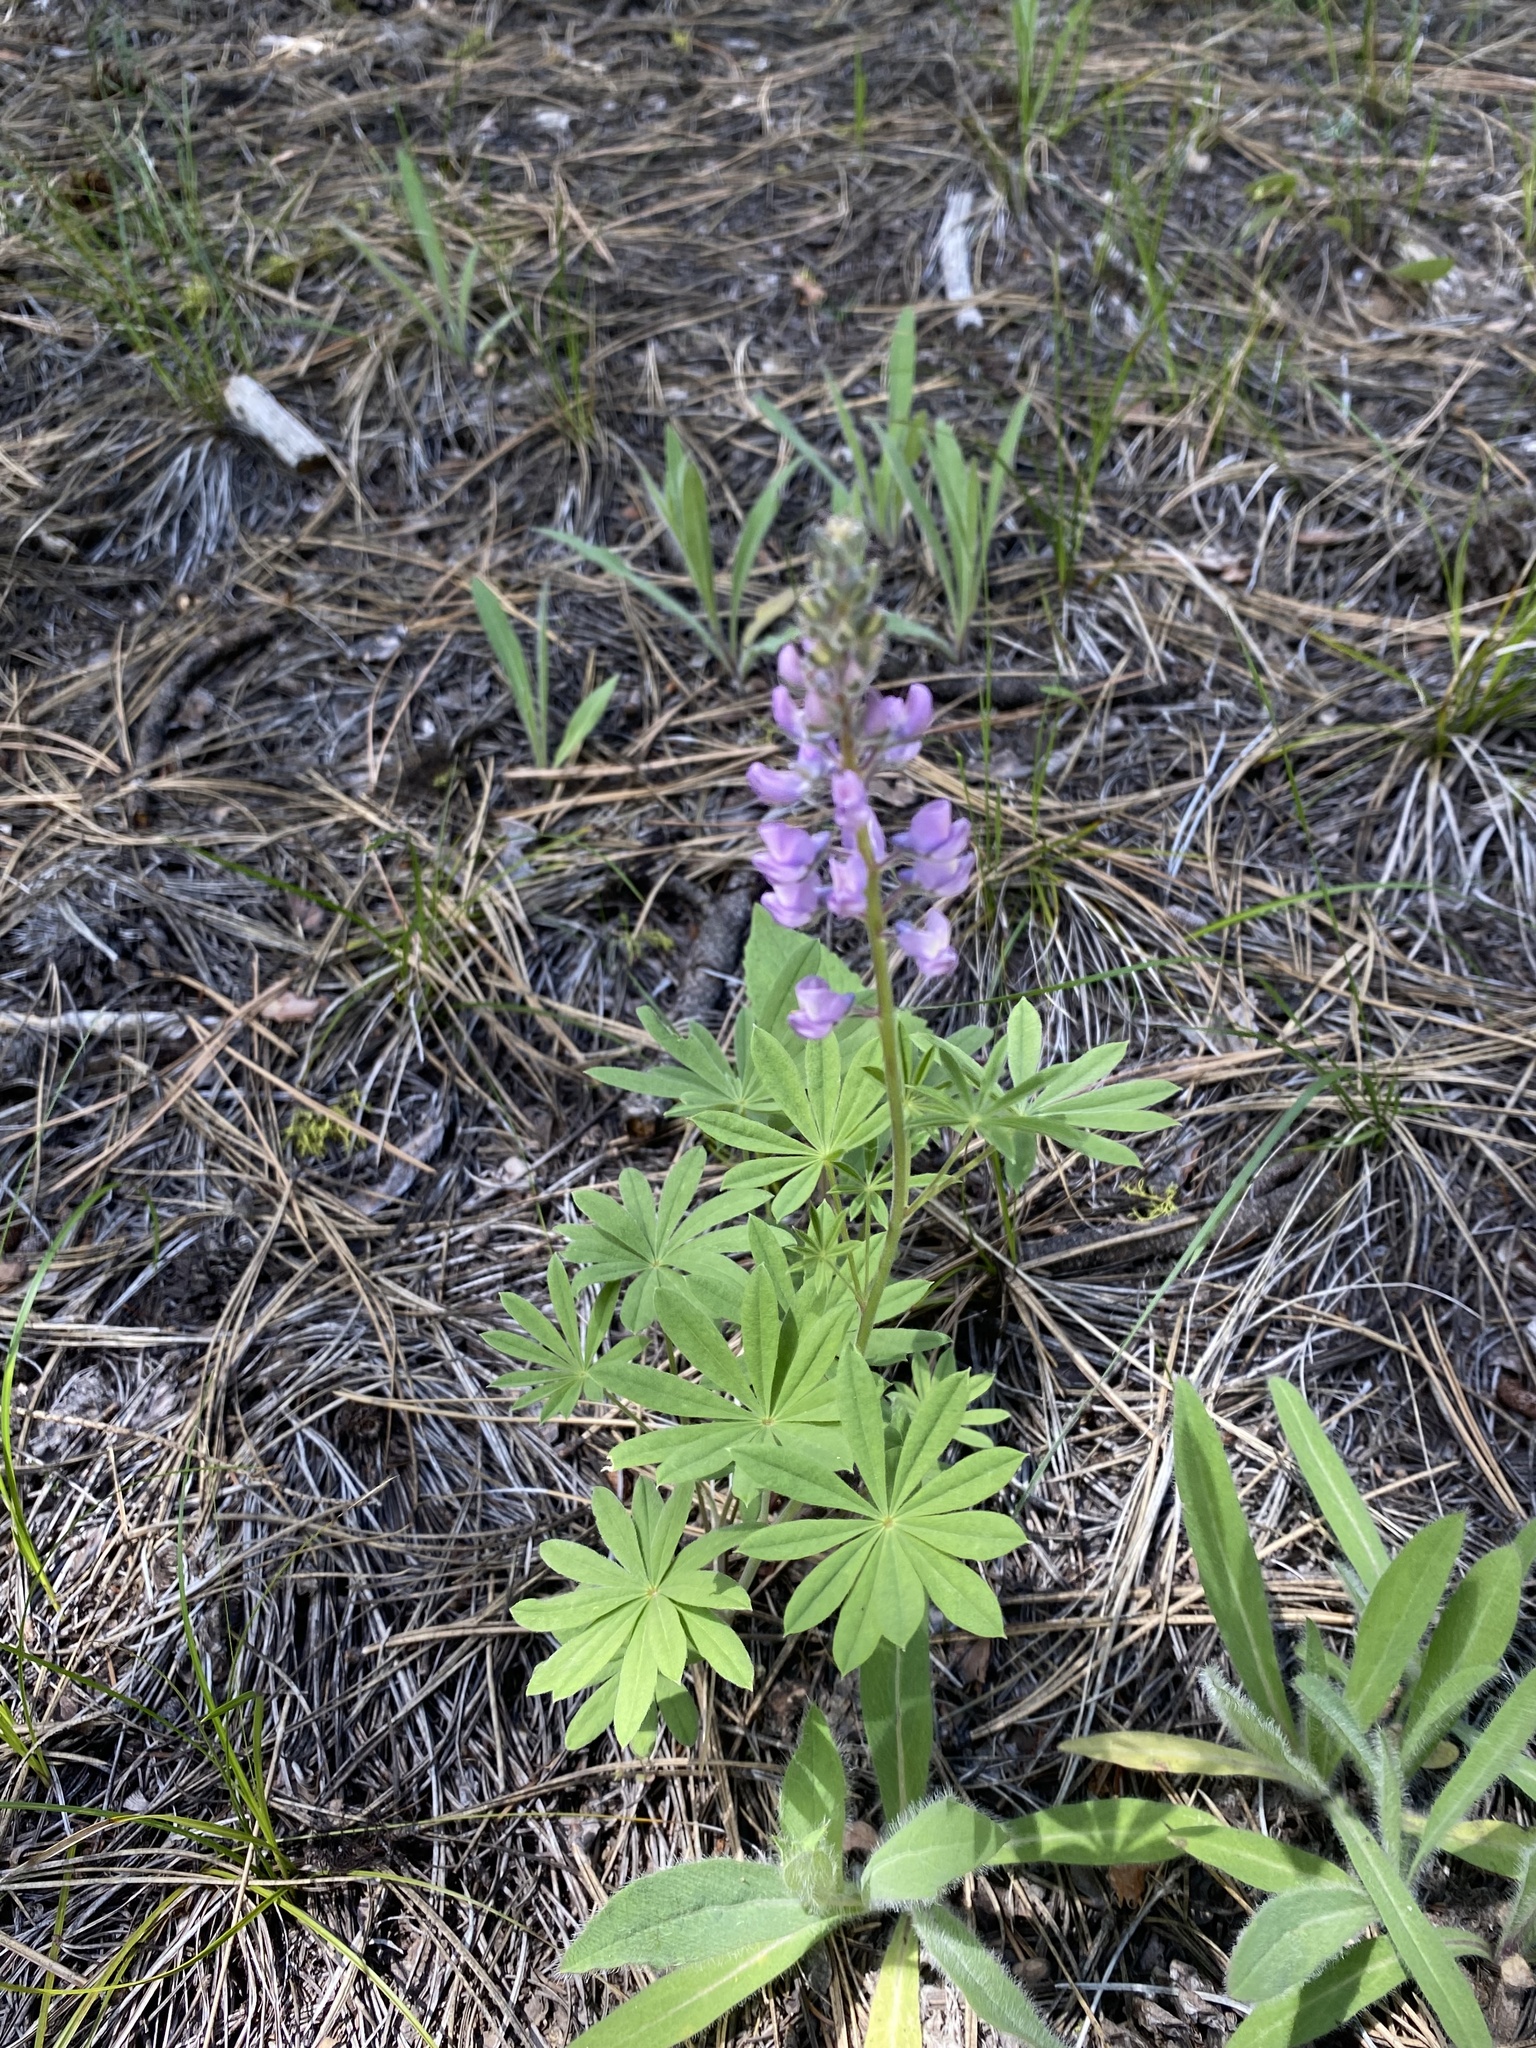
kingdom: Plantae
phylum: Tracheophyta
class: Magnoliopsida
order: Fabales
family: Fabaceae
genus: Lupinus
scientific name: Lupinus arbustus
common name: Montana lupine
